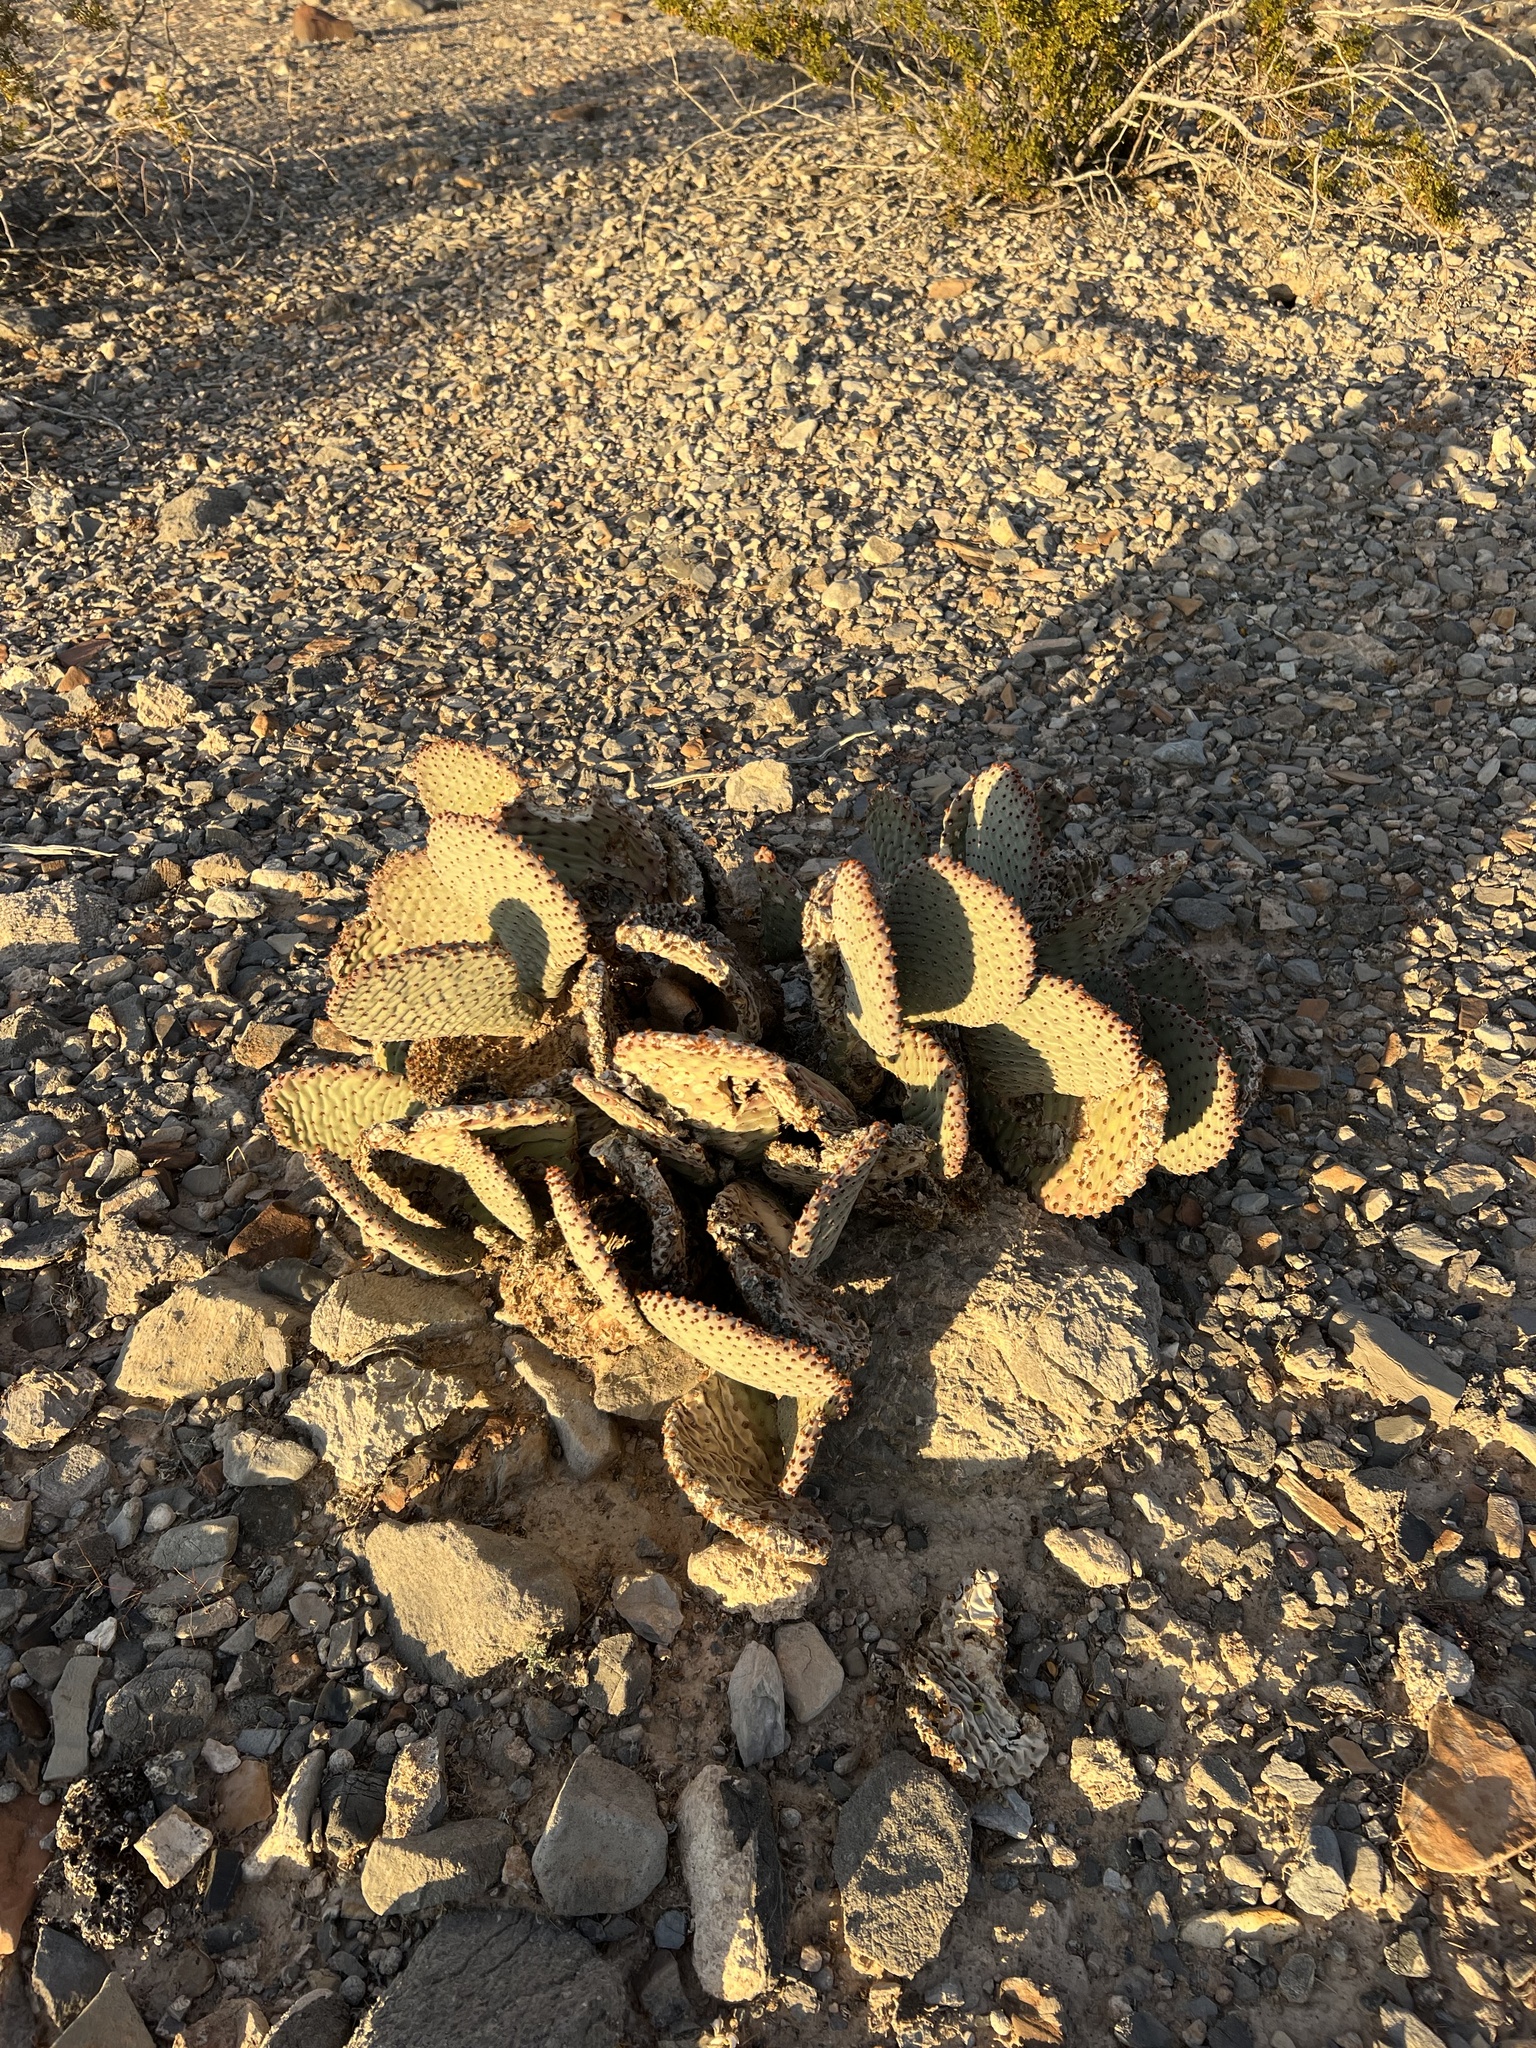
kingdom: Plantae
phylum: Tracheophyta
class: Magnoliopsida
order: Caryophyllales
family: Cactaceae
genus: Opuntia
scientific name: Opuntia basilaris
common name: Beavertail prickly-pear
